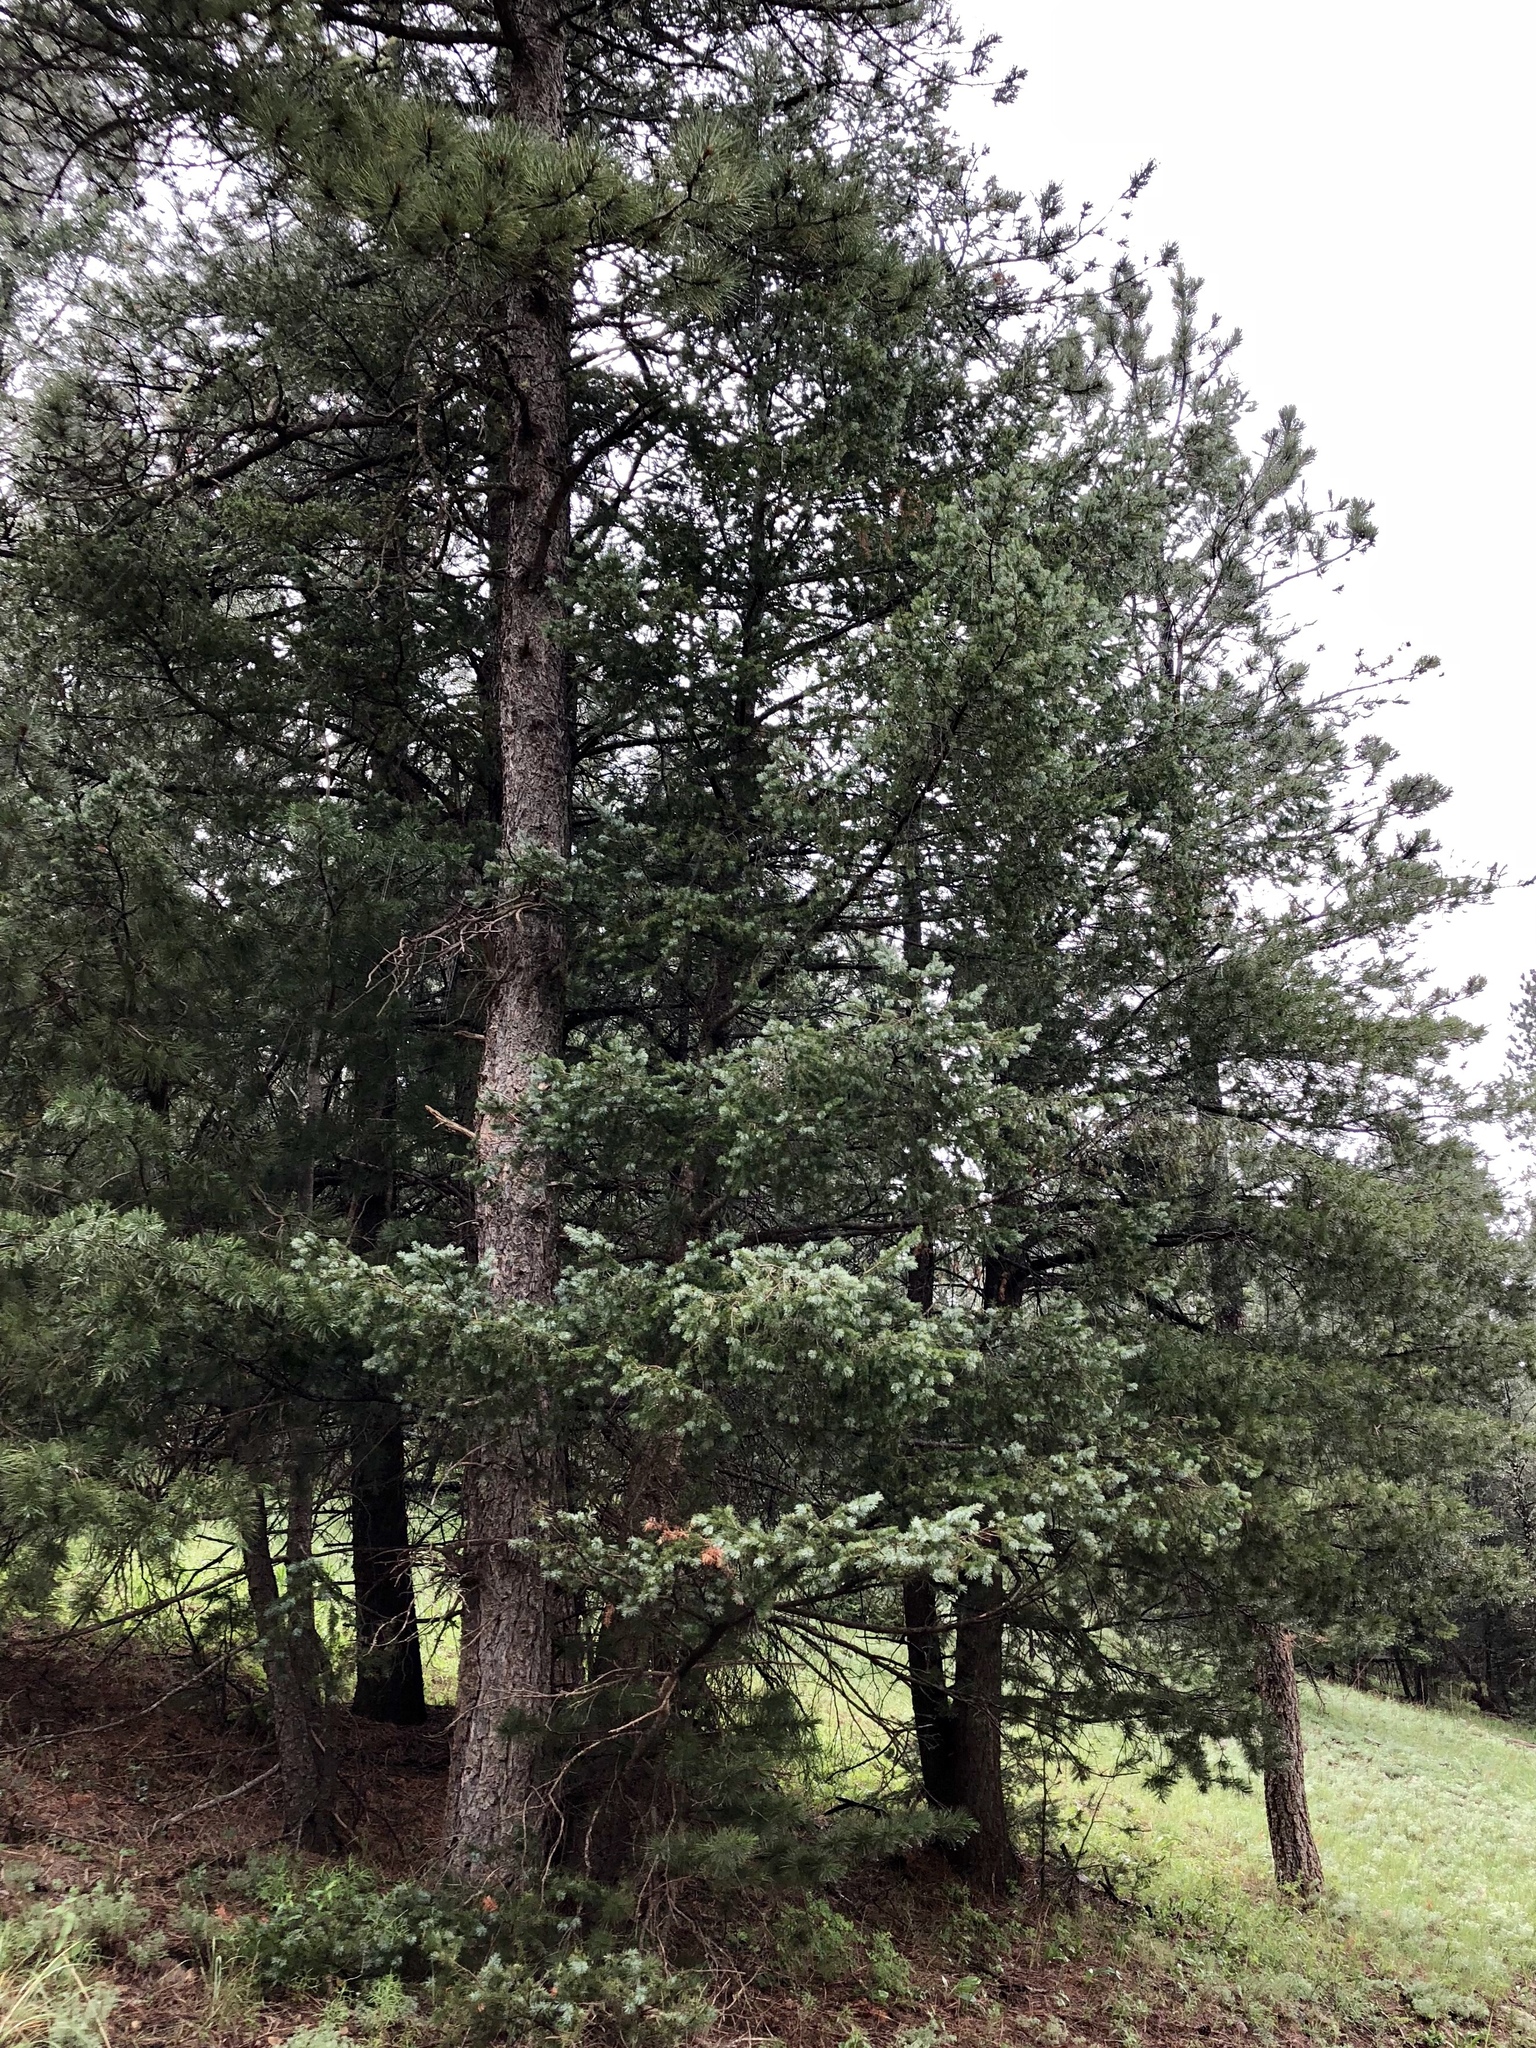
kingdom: Plantae
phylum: Tracheophyta
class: Pinopsida
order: Pinales
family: Pinaceae
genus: Abies
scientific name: Abies concolor
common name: Colorado fir
